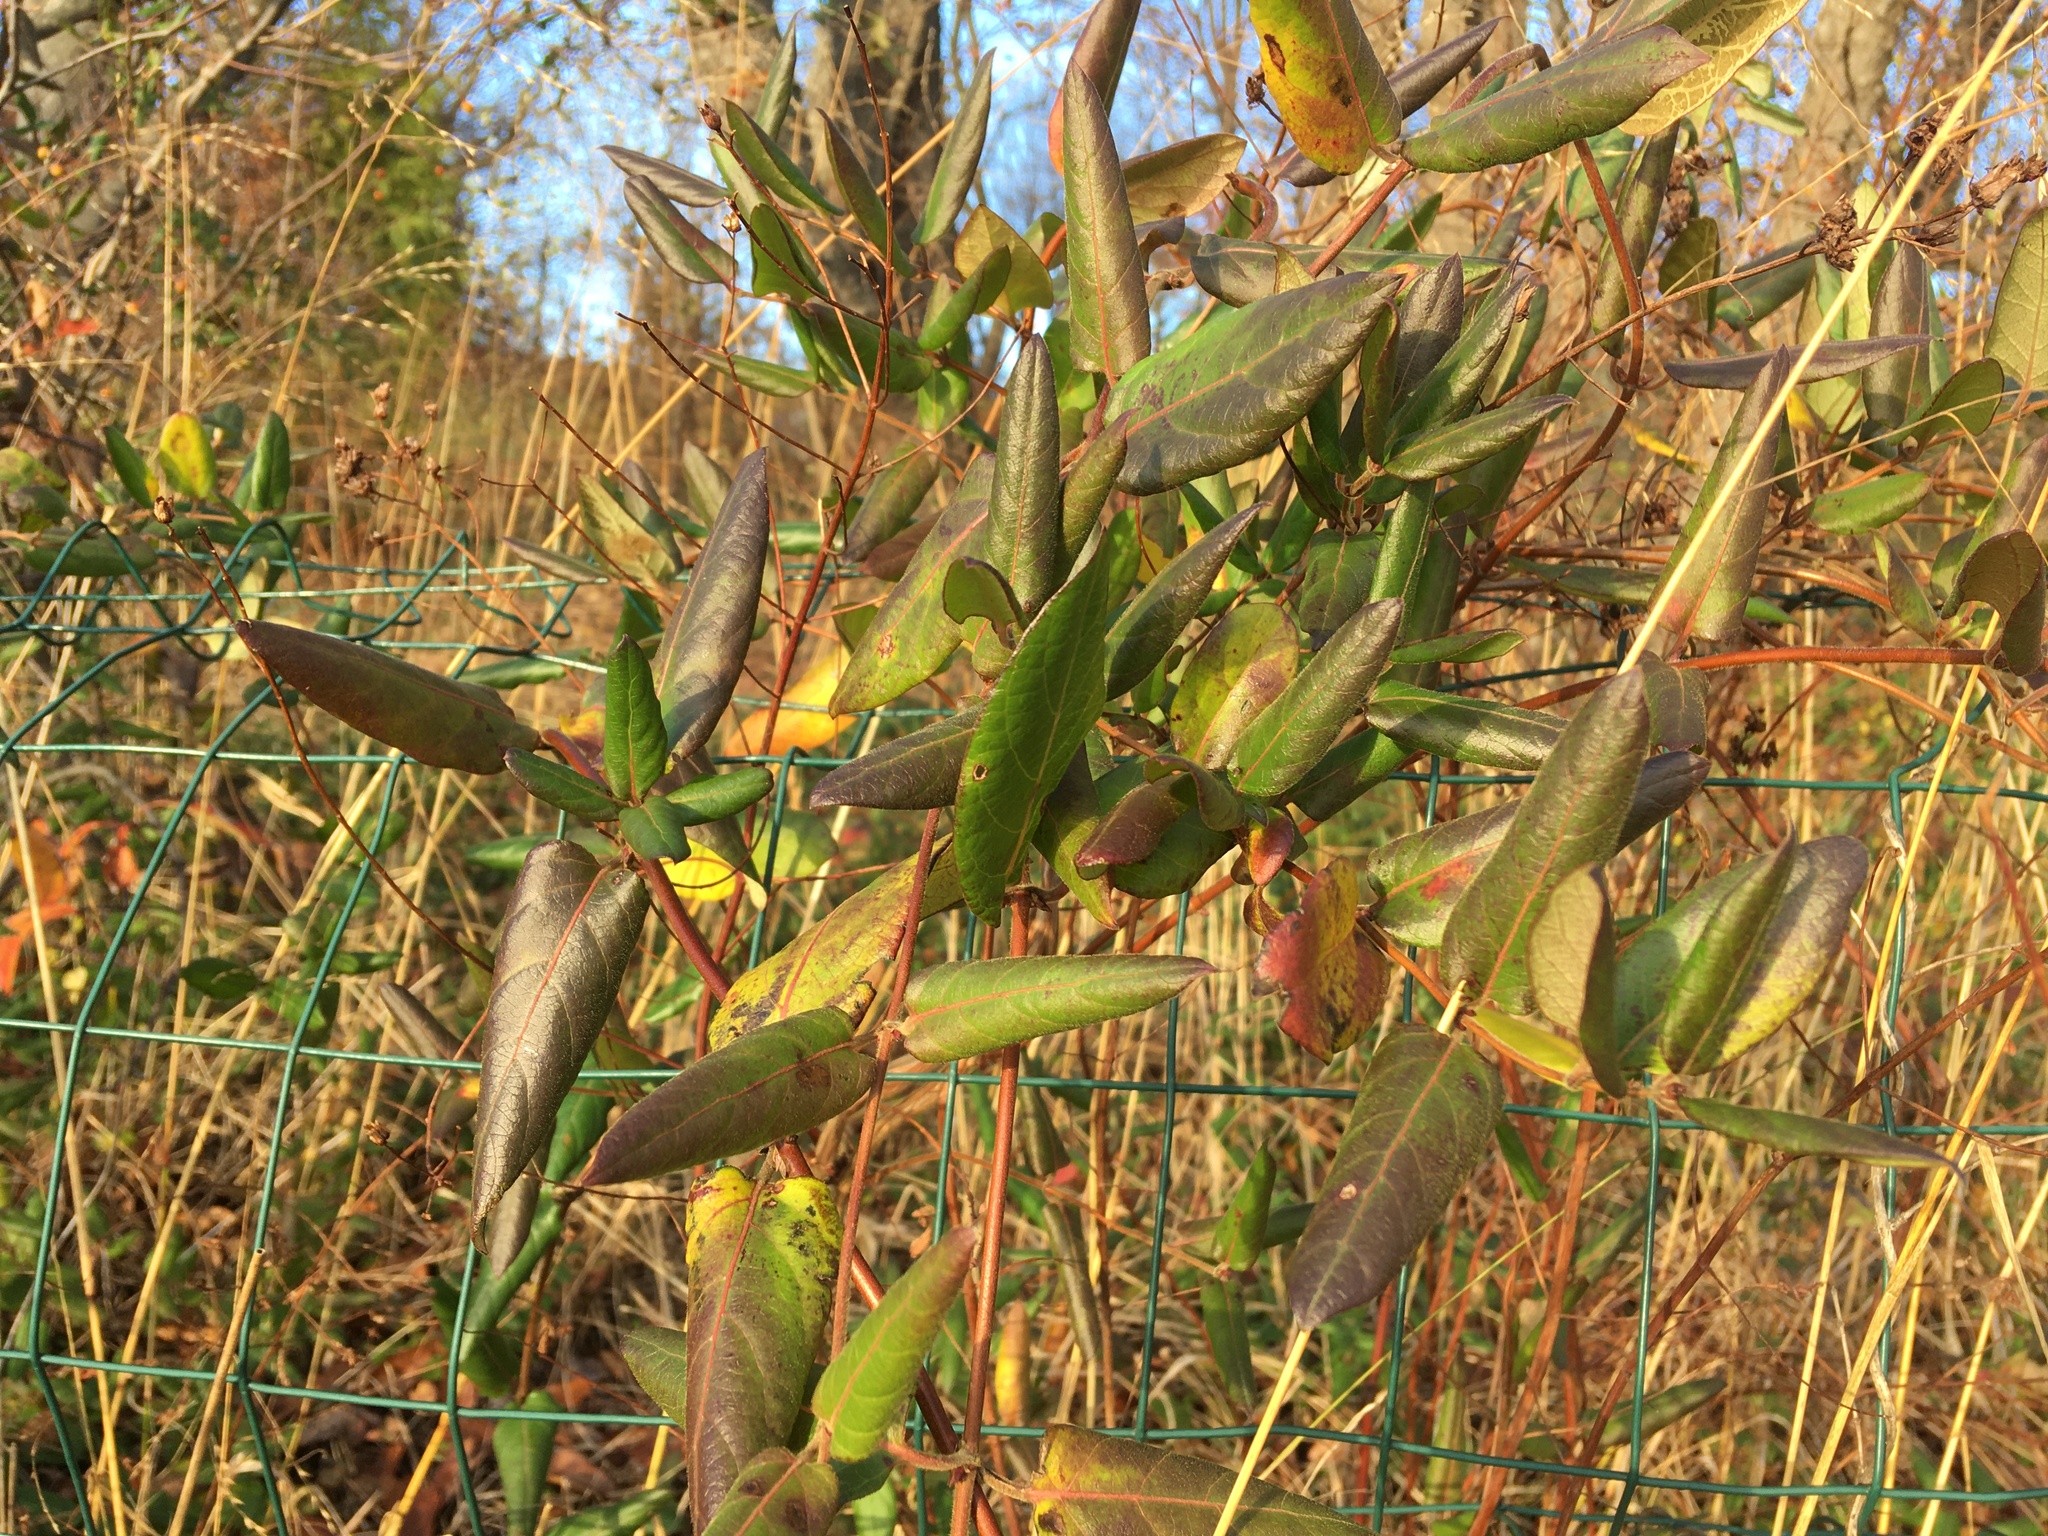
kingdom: Plantae
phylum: Tracheophyta
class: Magnoliopsida
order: Dipsacales
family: Caprifoliaceae
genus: Lonicera
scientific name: Lonicera japonica
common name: Japanese honeysuckle
